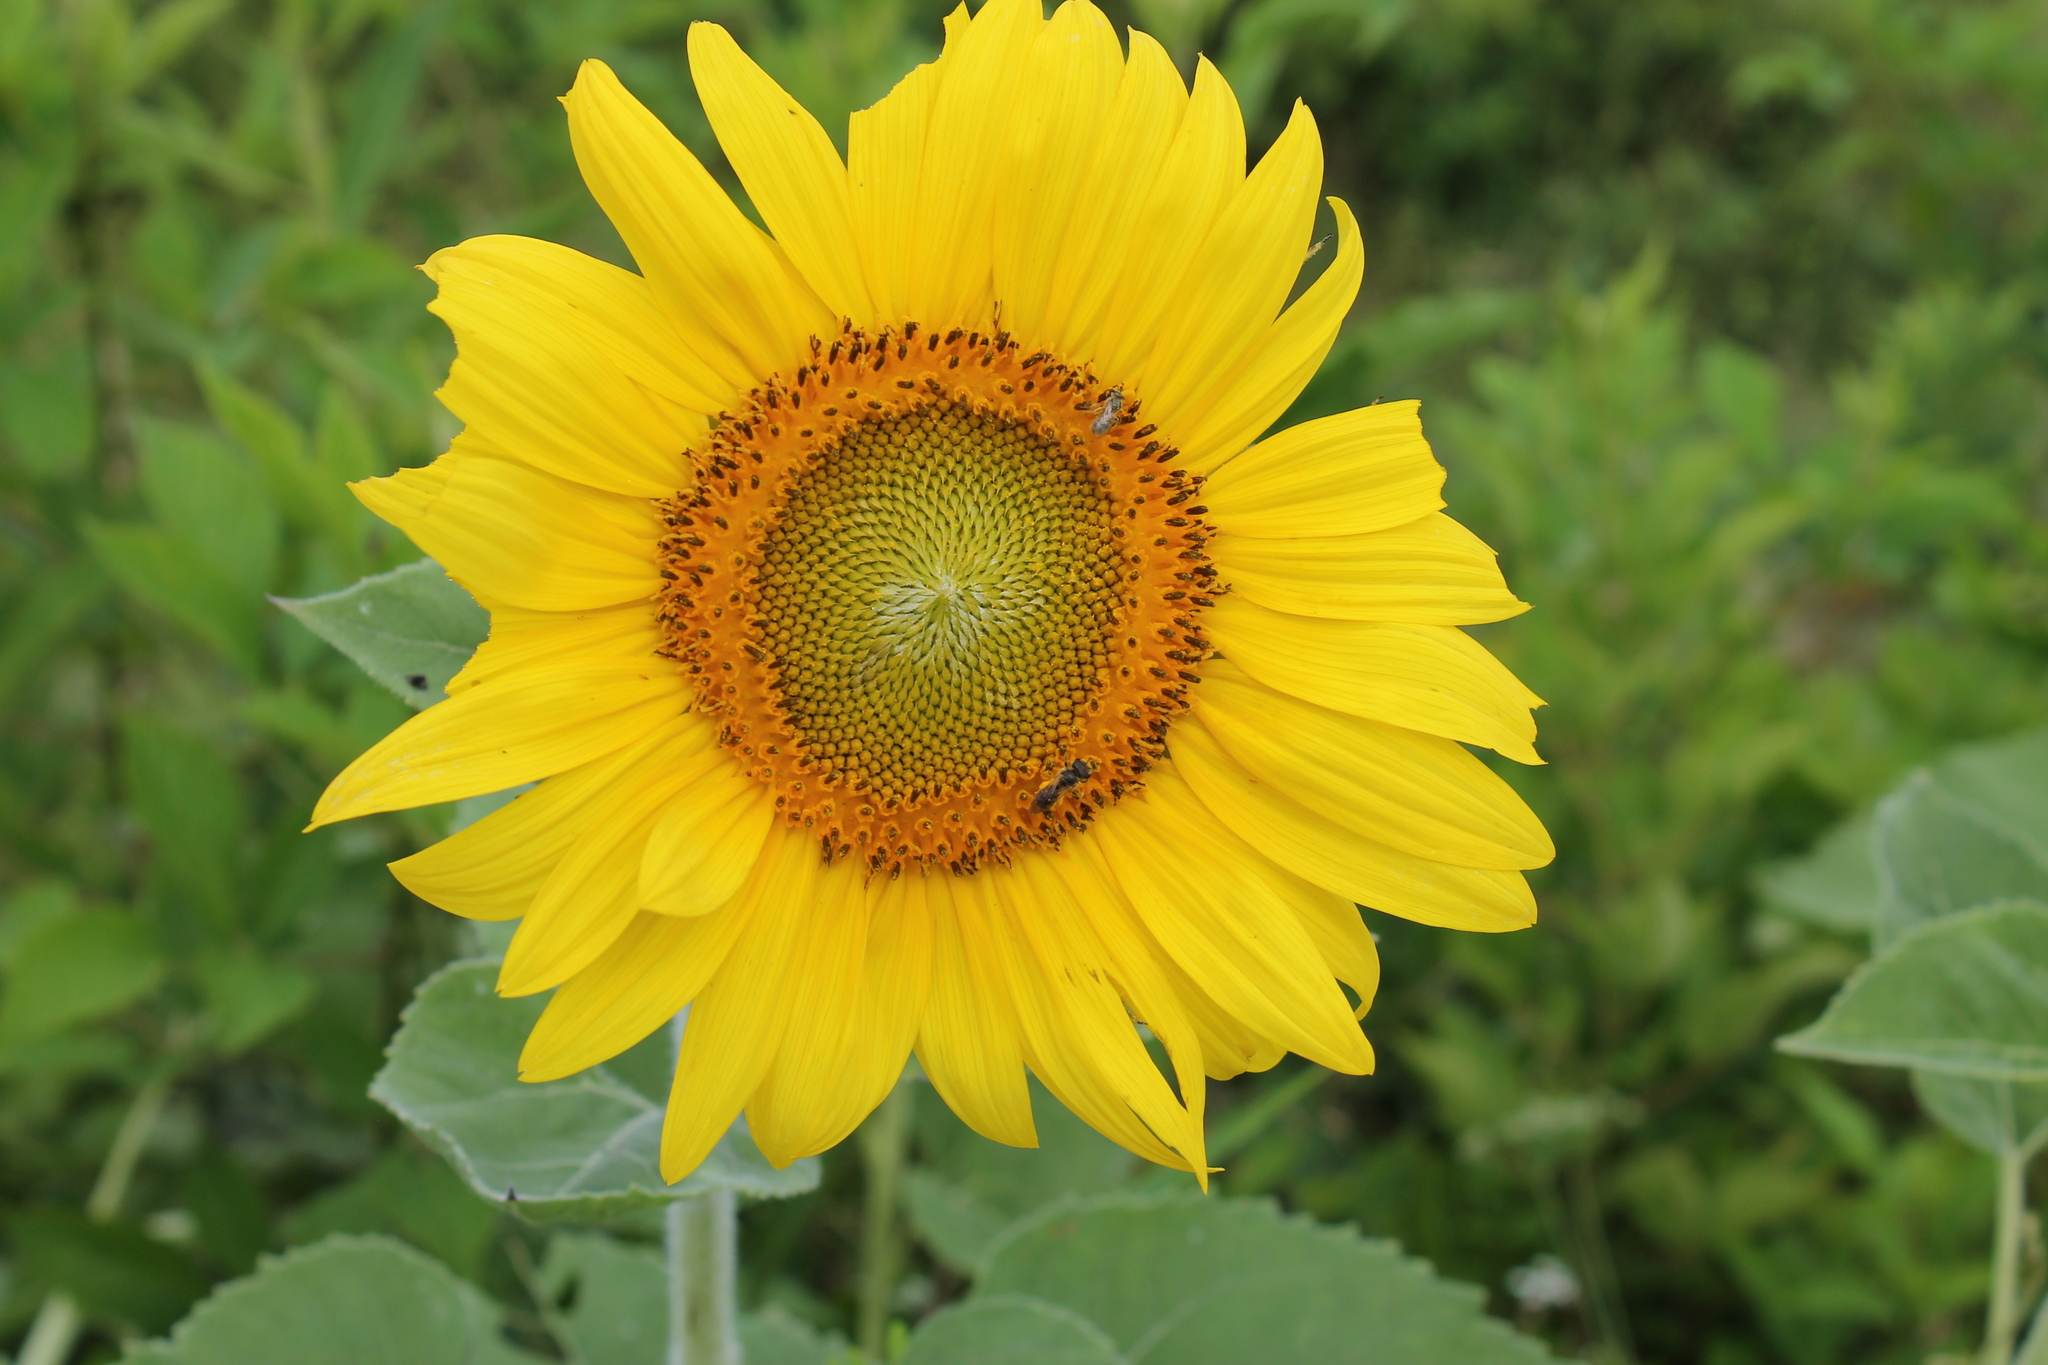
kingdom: Plantae
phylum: Tracheophyta
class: Magnoliopsida
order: Asterales
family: Asteraceae
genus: Helianthus
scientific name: Helianthus annuus
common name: Sunflower
